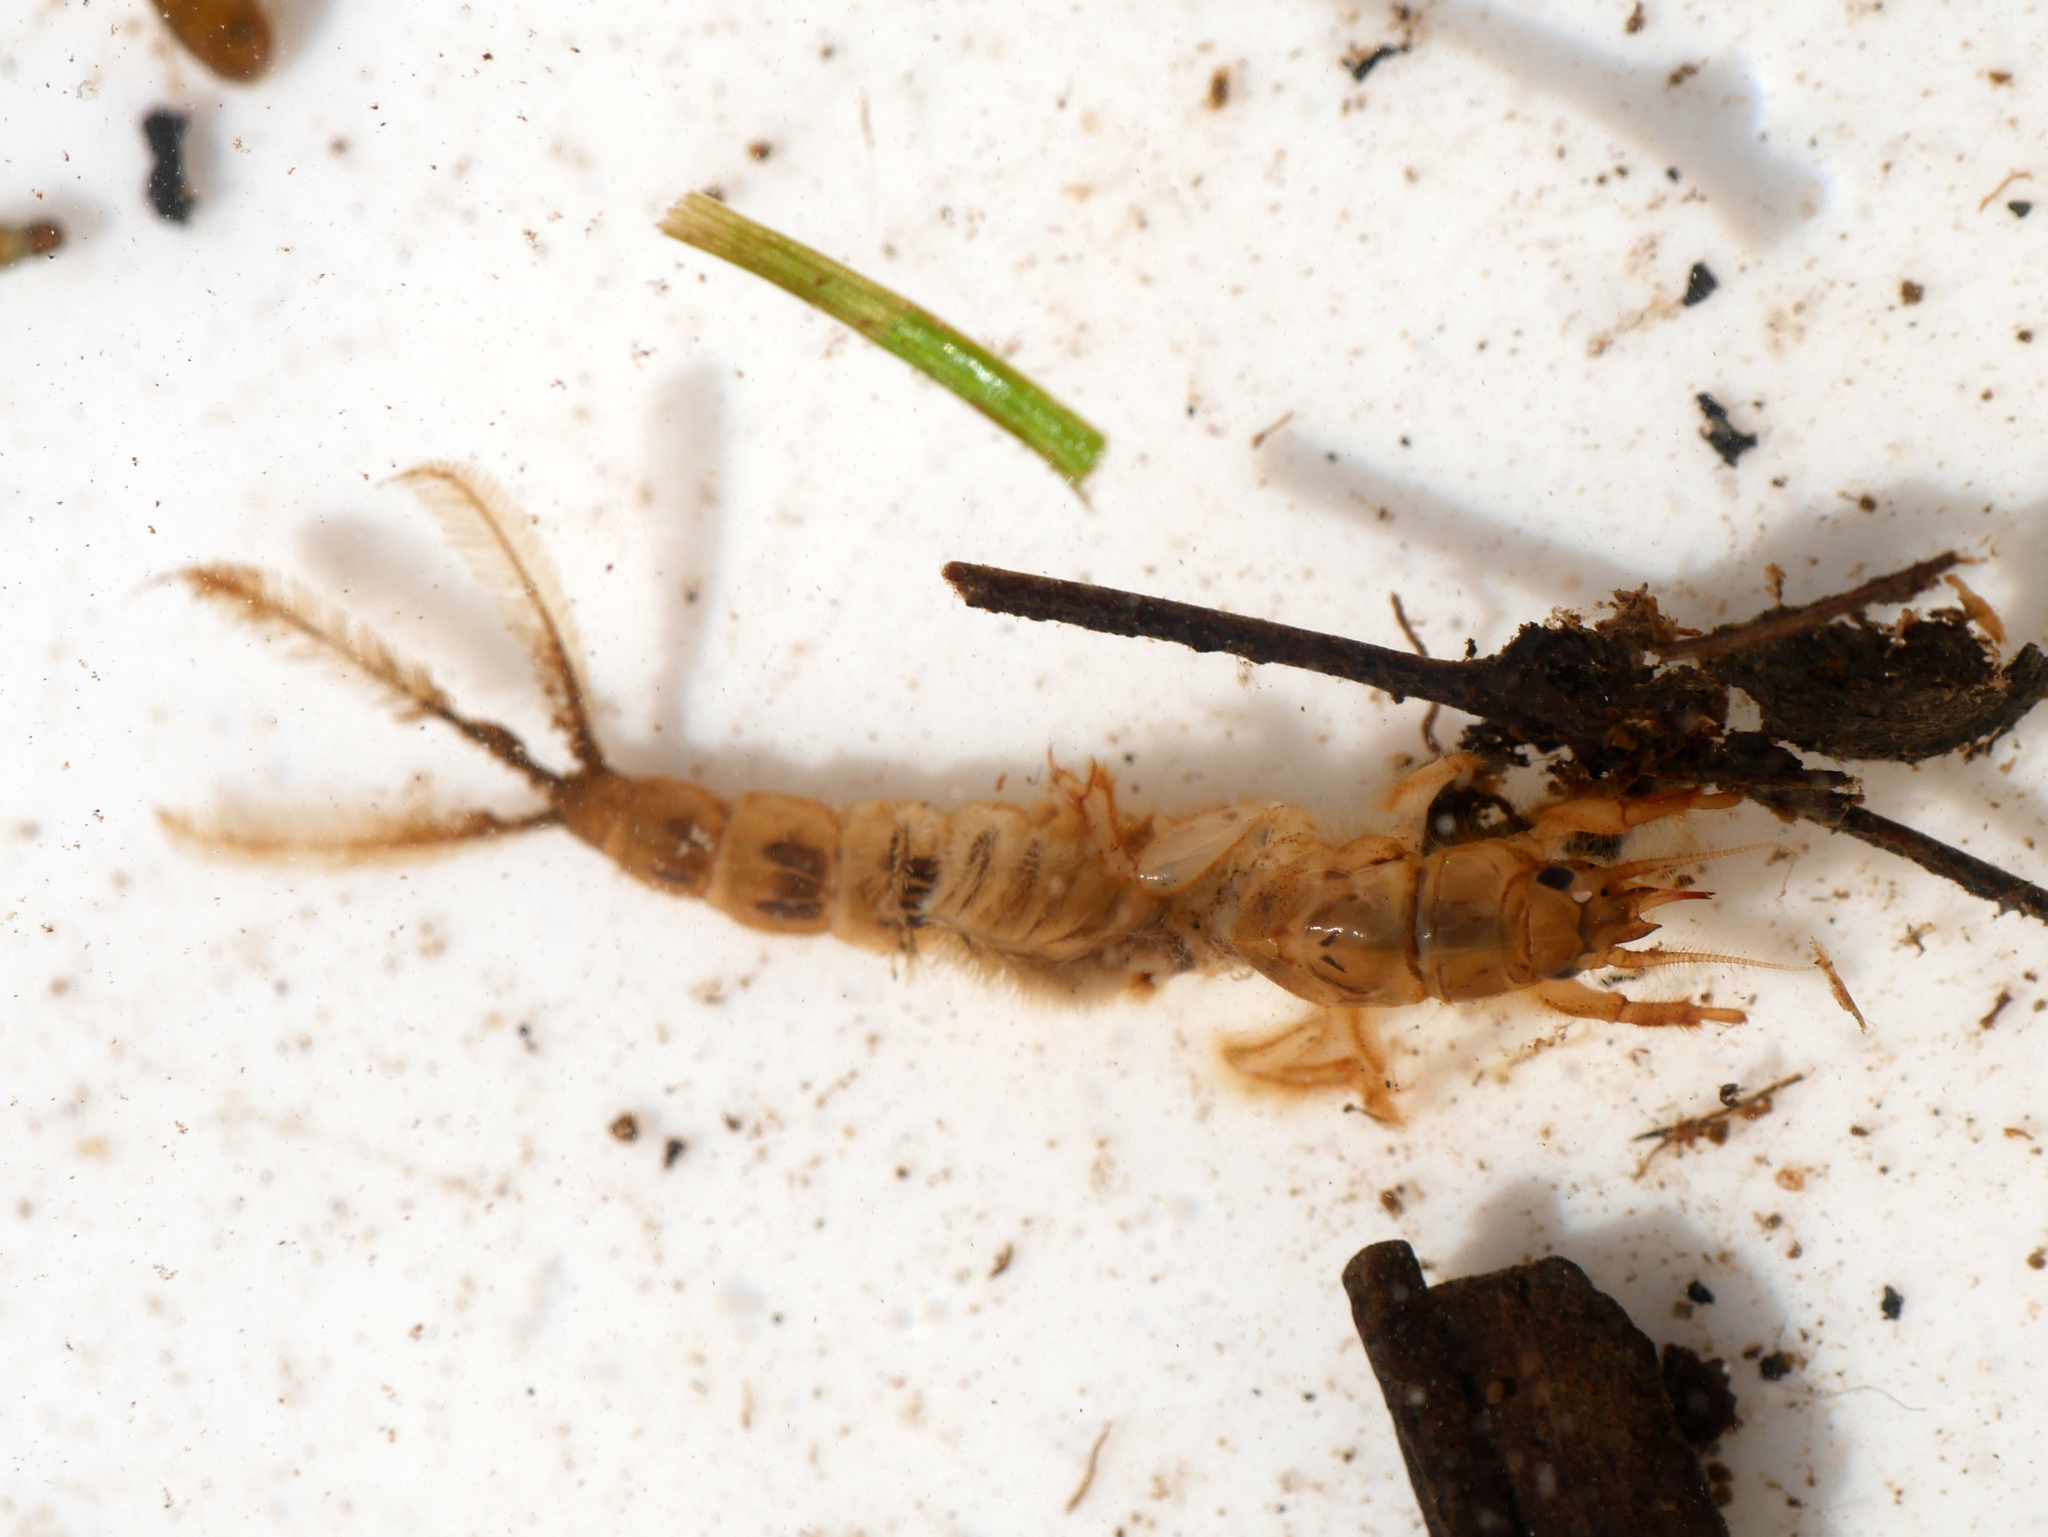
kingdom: Animalia
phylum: Arthropoda
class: Insecta
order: Ephemeroptera
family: Ephemeridae
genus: Ephemera
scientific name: Ephemera danica
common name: Green dun
